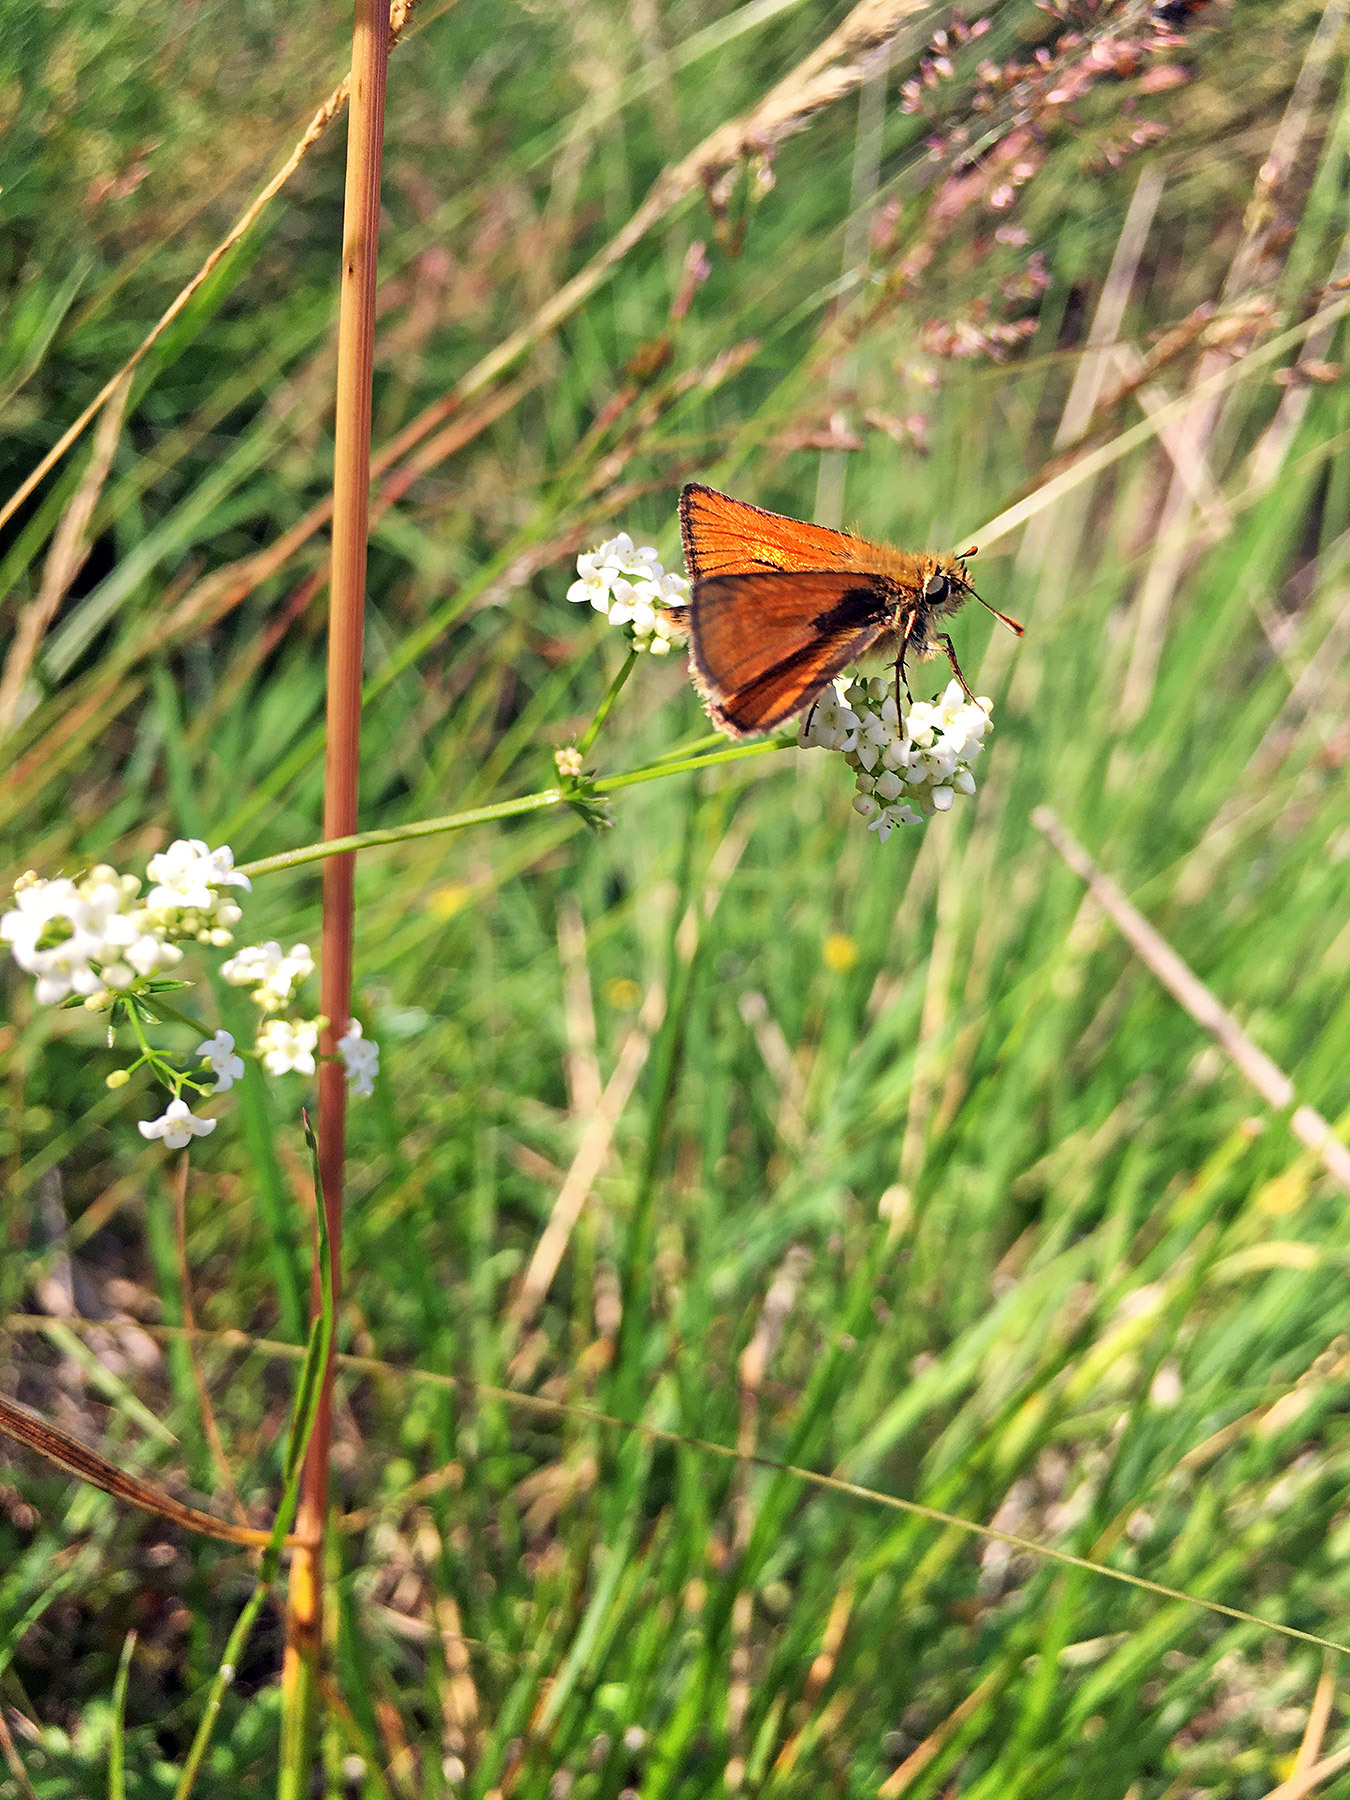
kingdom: Animalia
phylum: Arthropoda
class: Insecta
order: Lepidoptera
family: Hesperiidae
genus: Thymelicus
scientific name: Thymelicus sylvestris
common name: Small skipper
